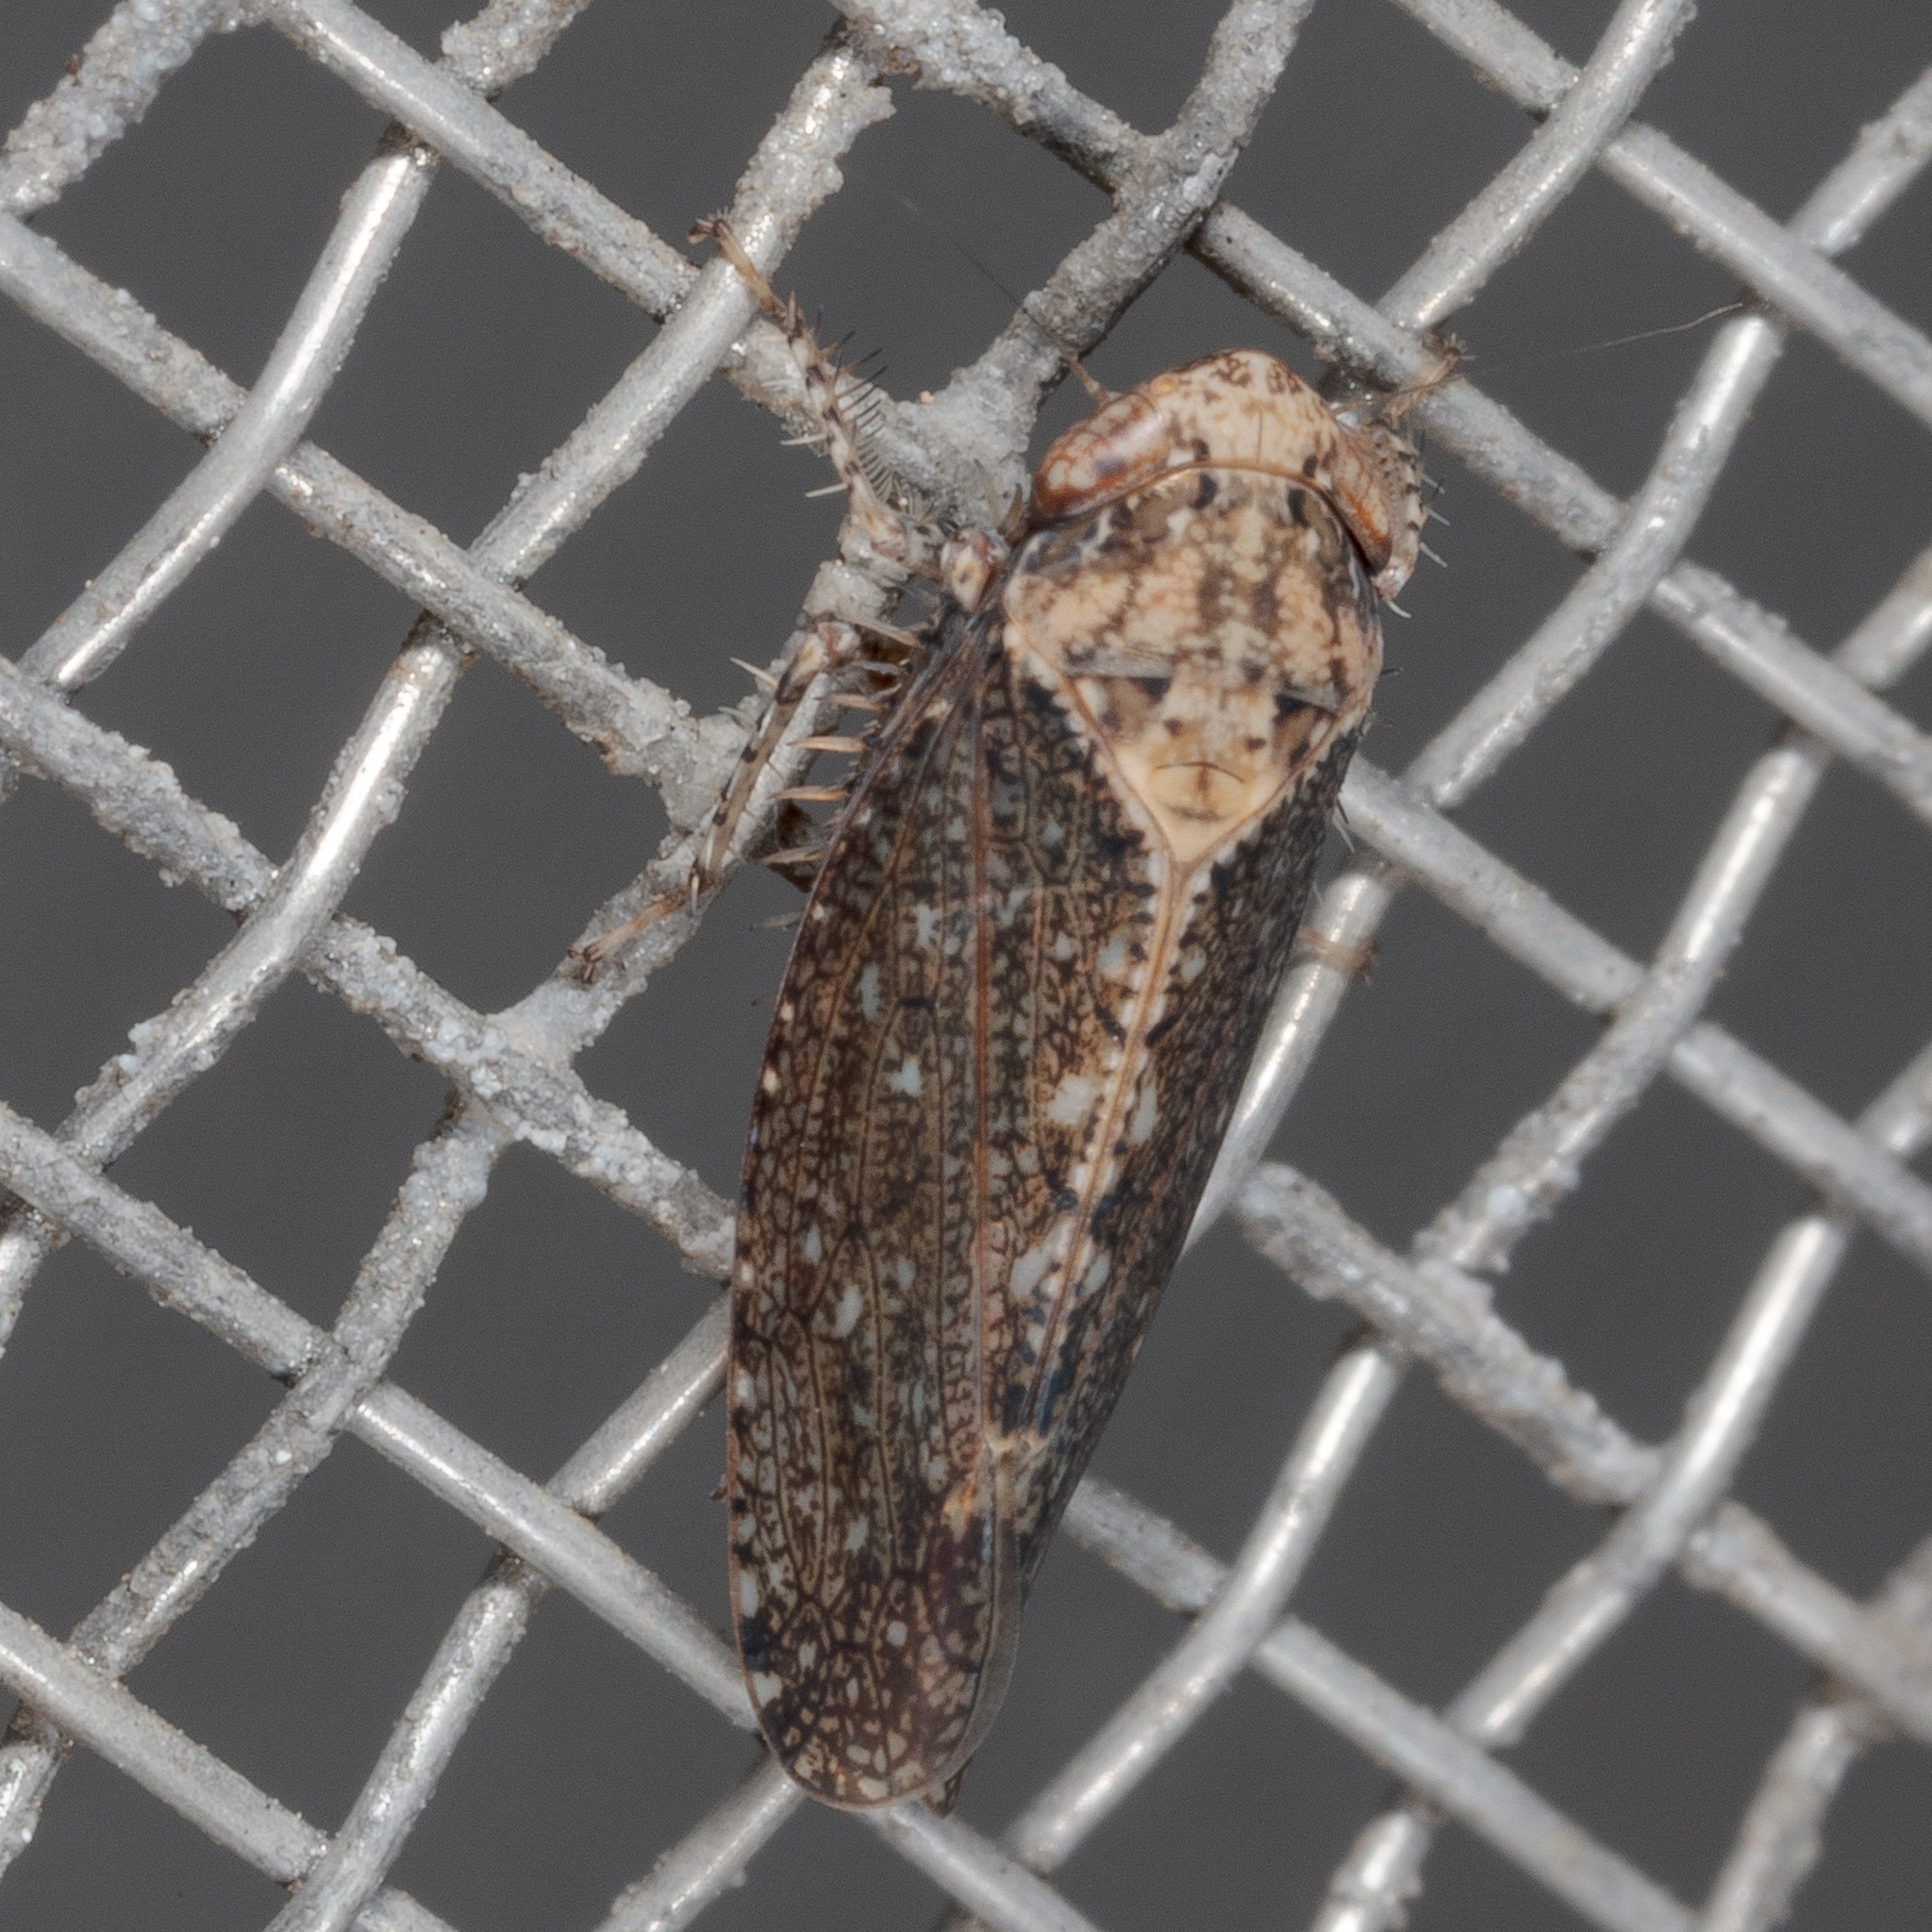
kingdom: Animalia
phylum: Arthropoda
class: Insecta
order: Hemiptera
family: Cicadellidae
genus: Excultanus
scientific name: Excultanus excultus
